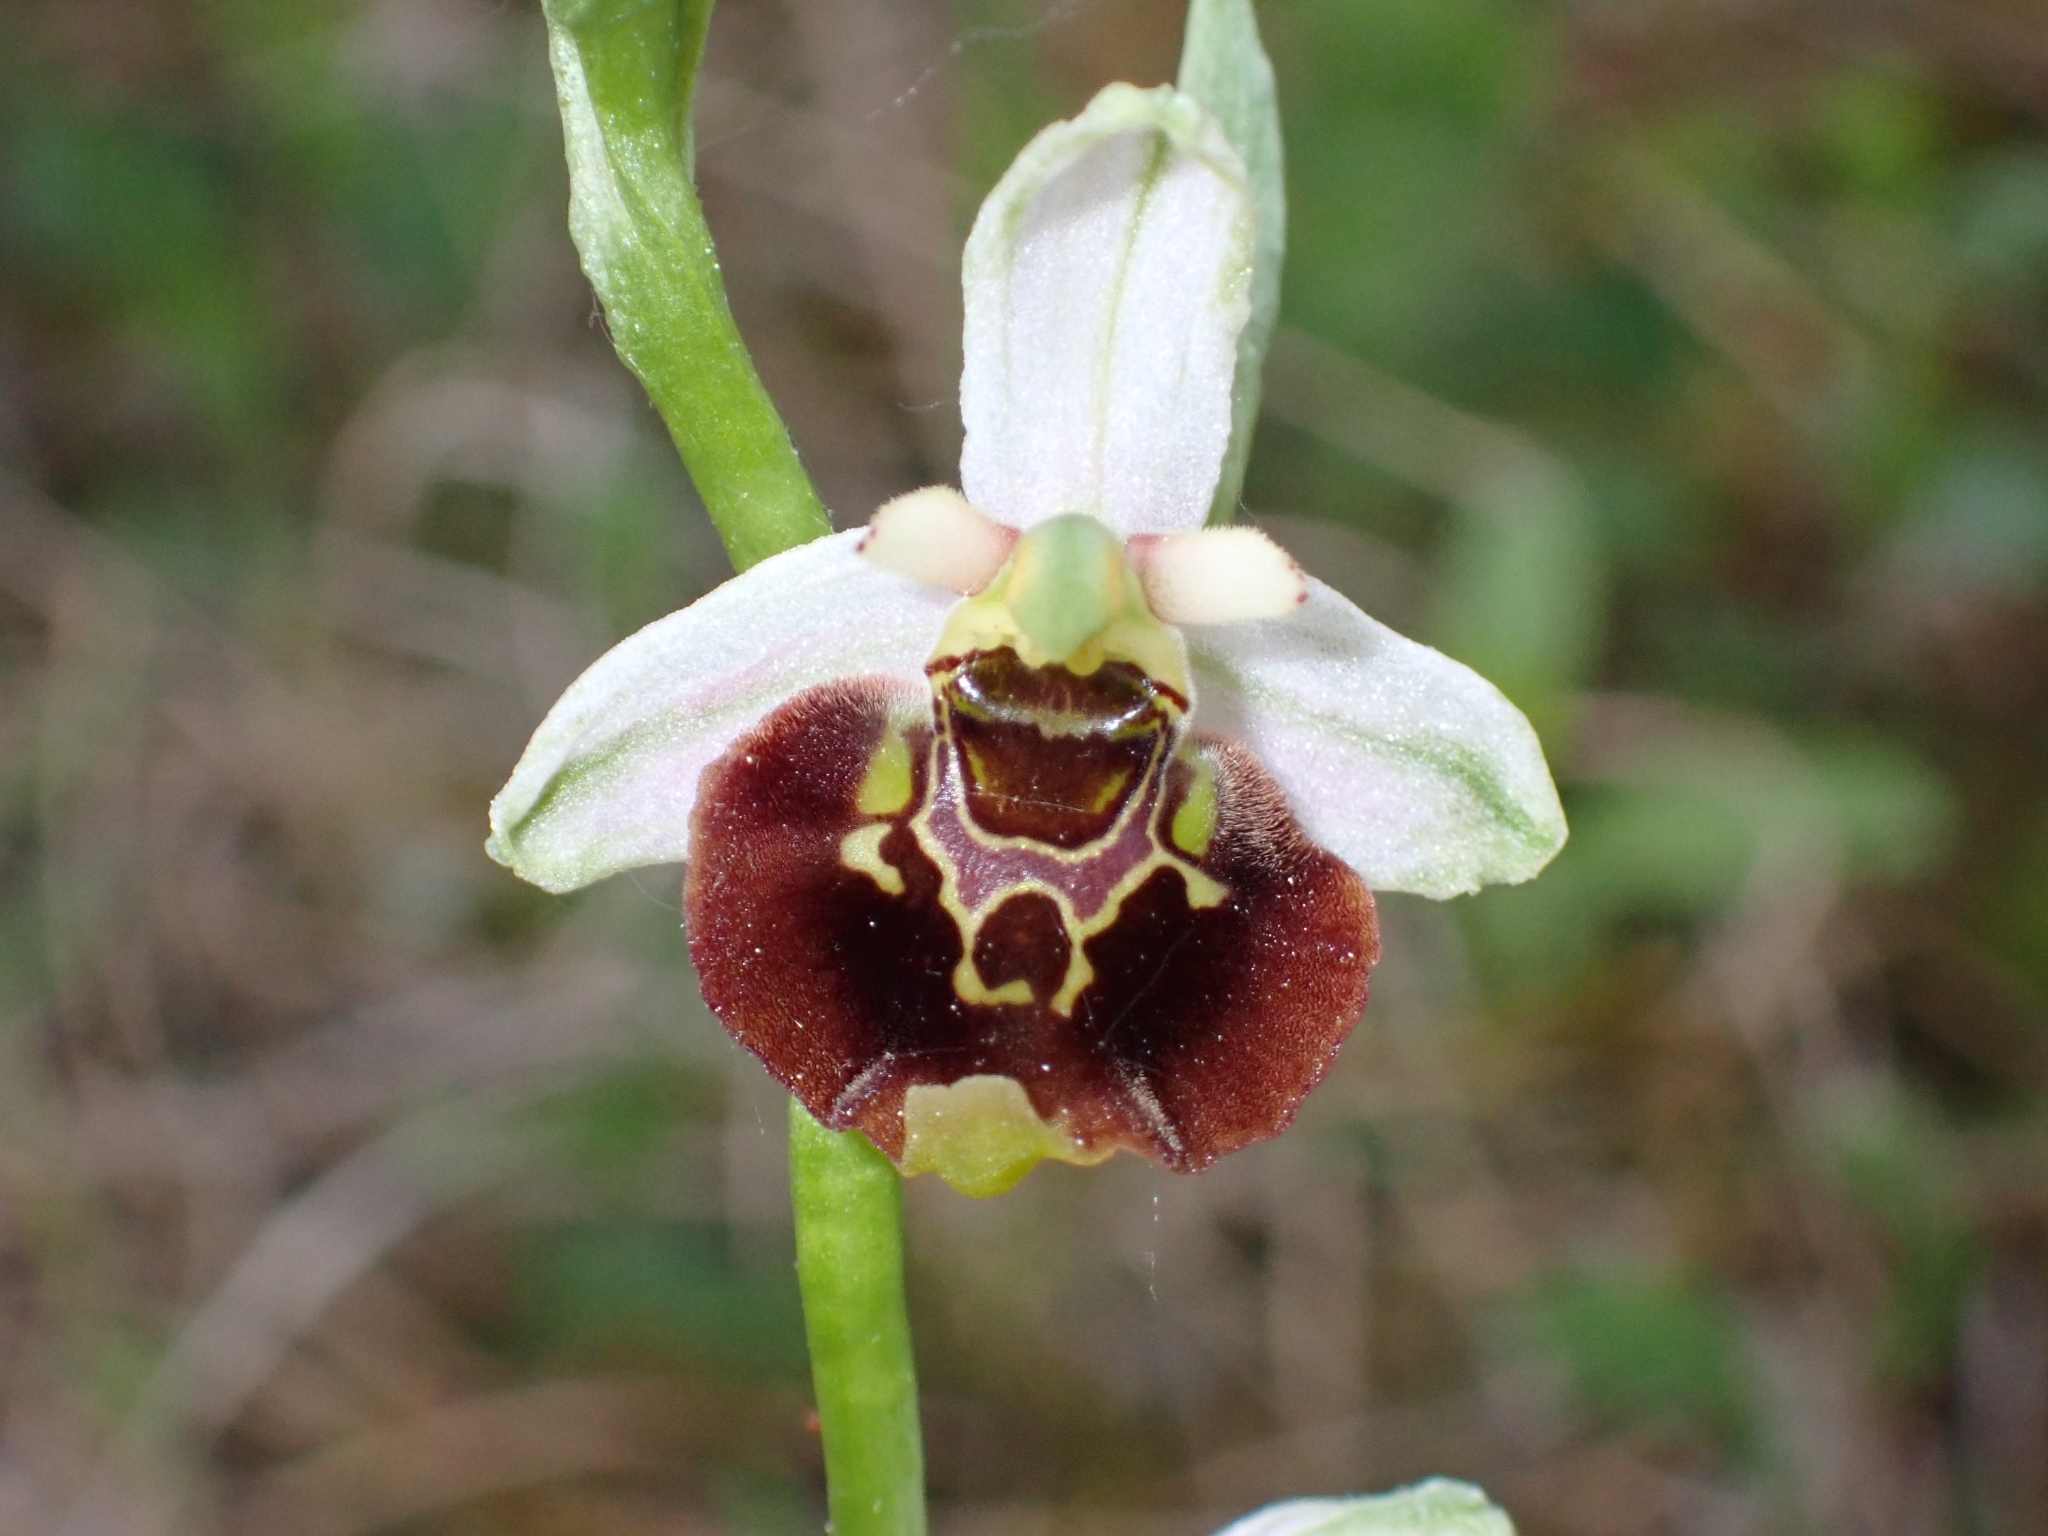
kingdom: Plantae
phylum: Tracheophyta
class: Liliopsida
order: Asparagales
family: Orchidaceae
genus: Ophrys
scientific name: Ophrys holosericea
